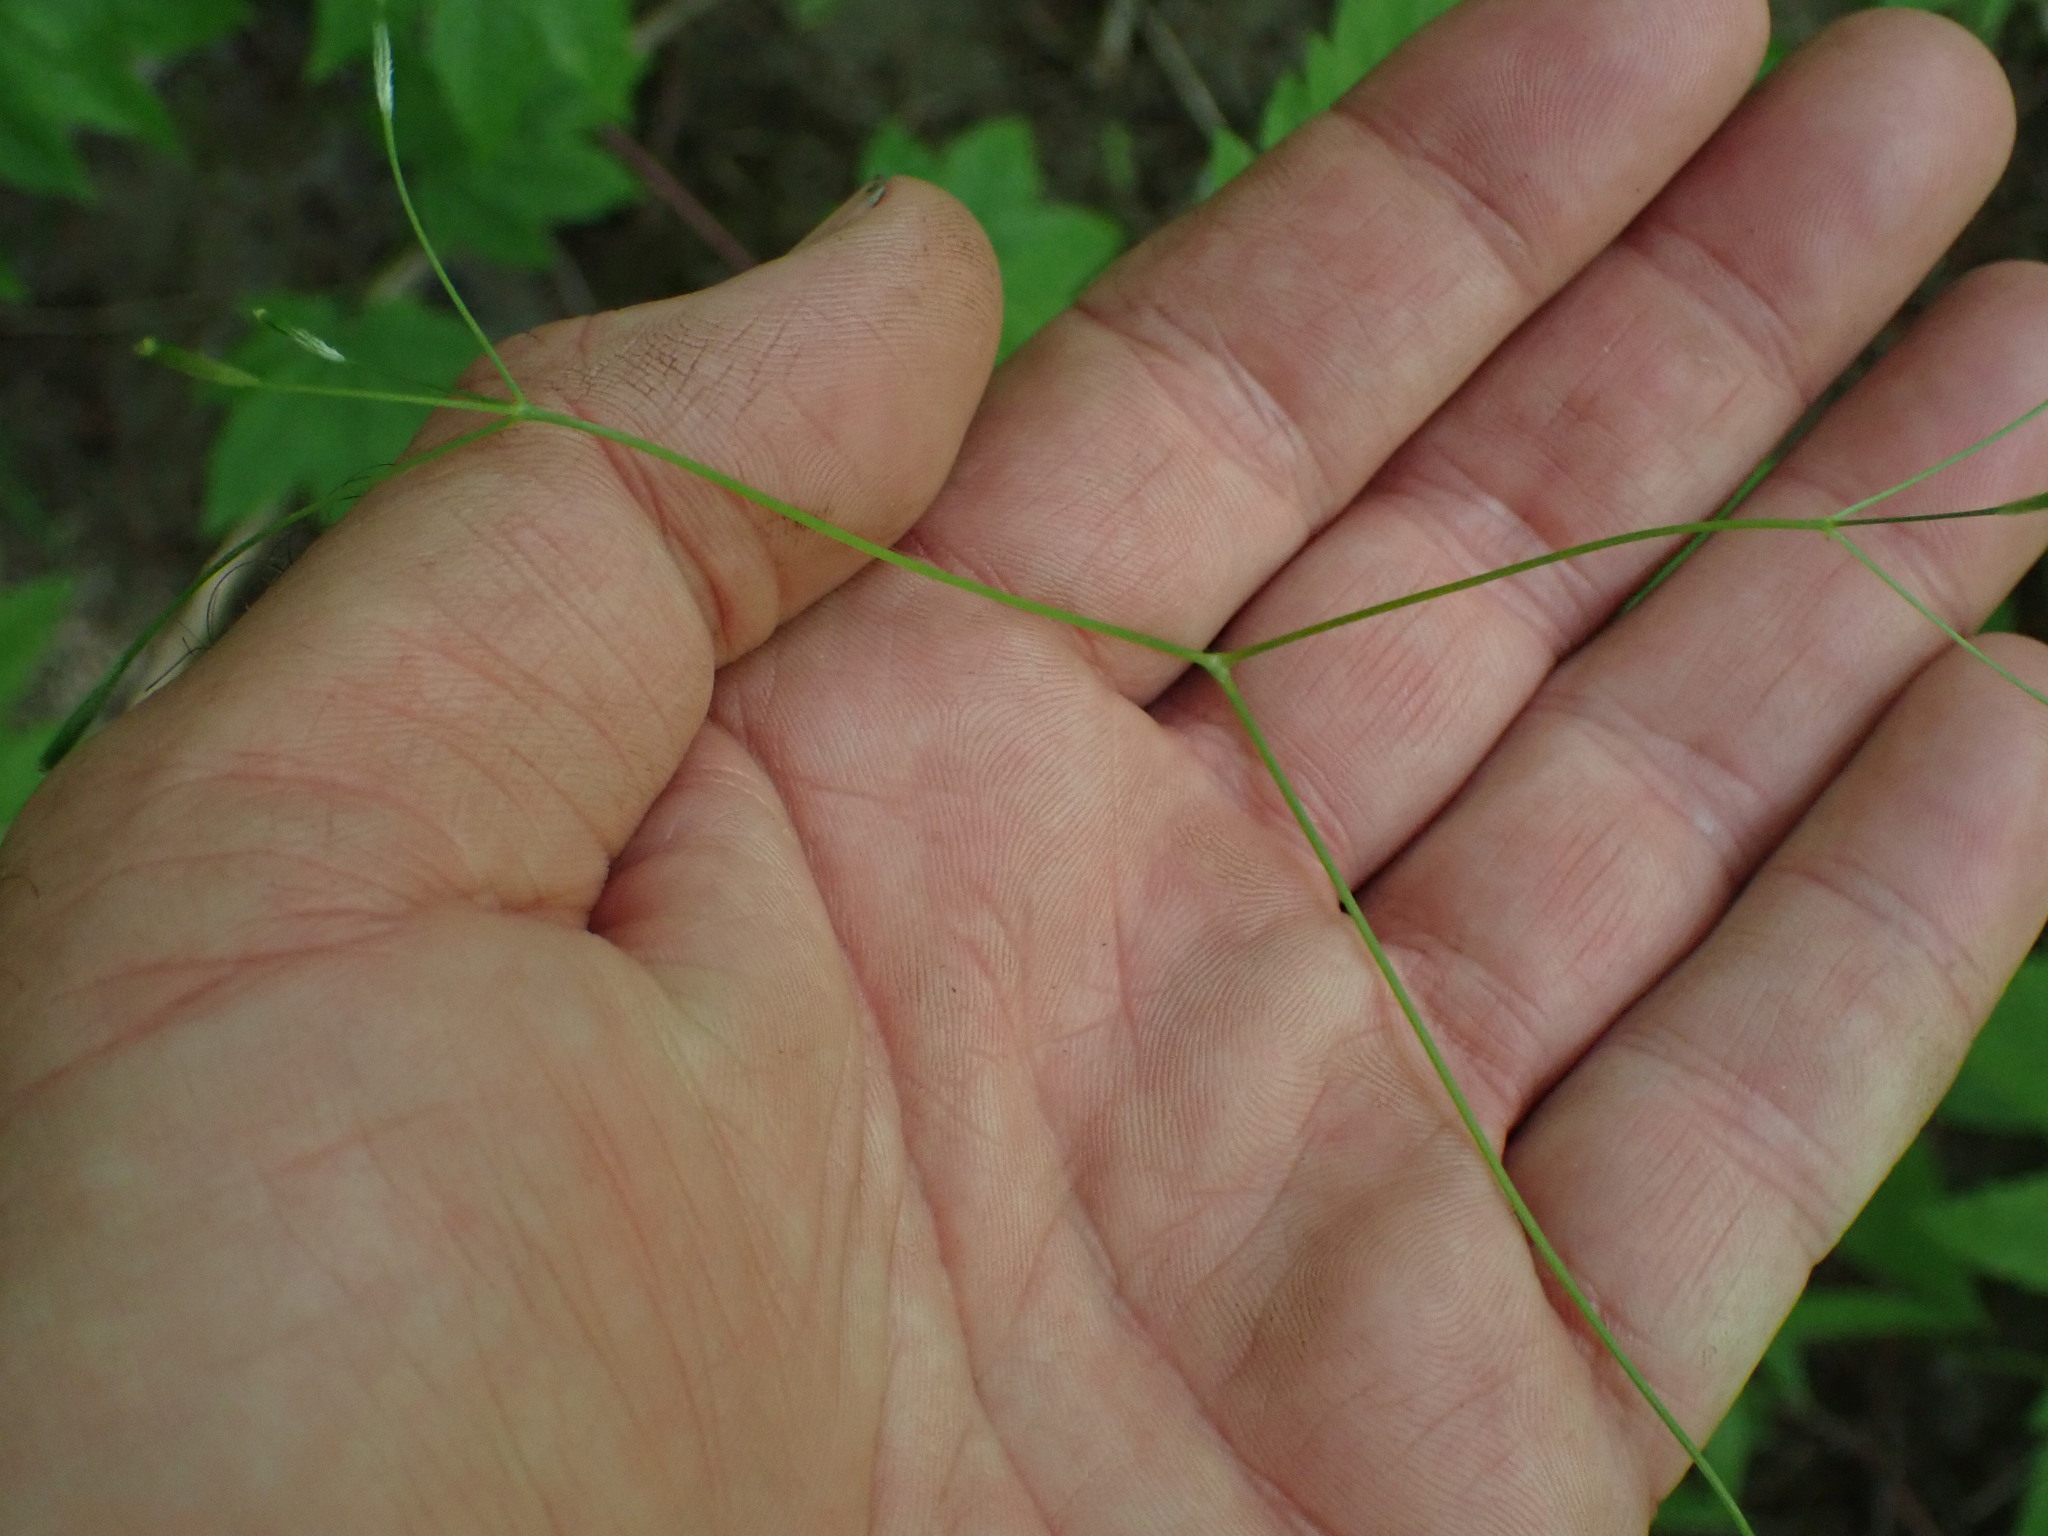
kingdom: Plantae
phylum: Tracheophyta
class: Magnoliopsida
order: Apiales
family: Apiaceae
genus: Osmorhiza
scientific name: Osmorhiza berteroi
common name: Mountain sweet cicely
